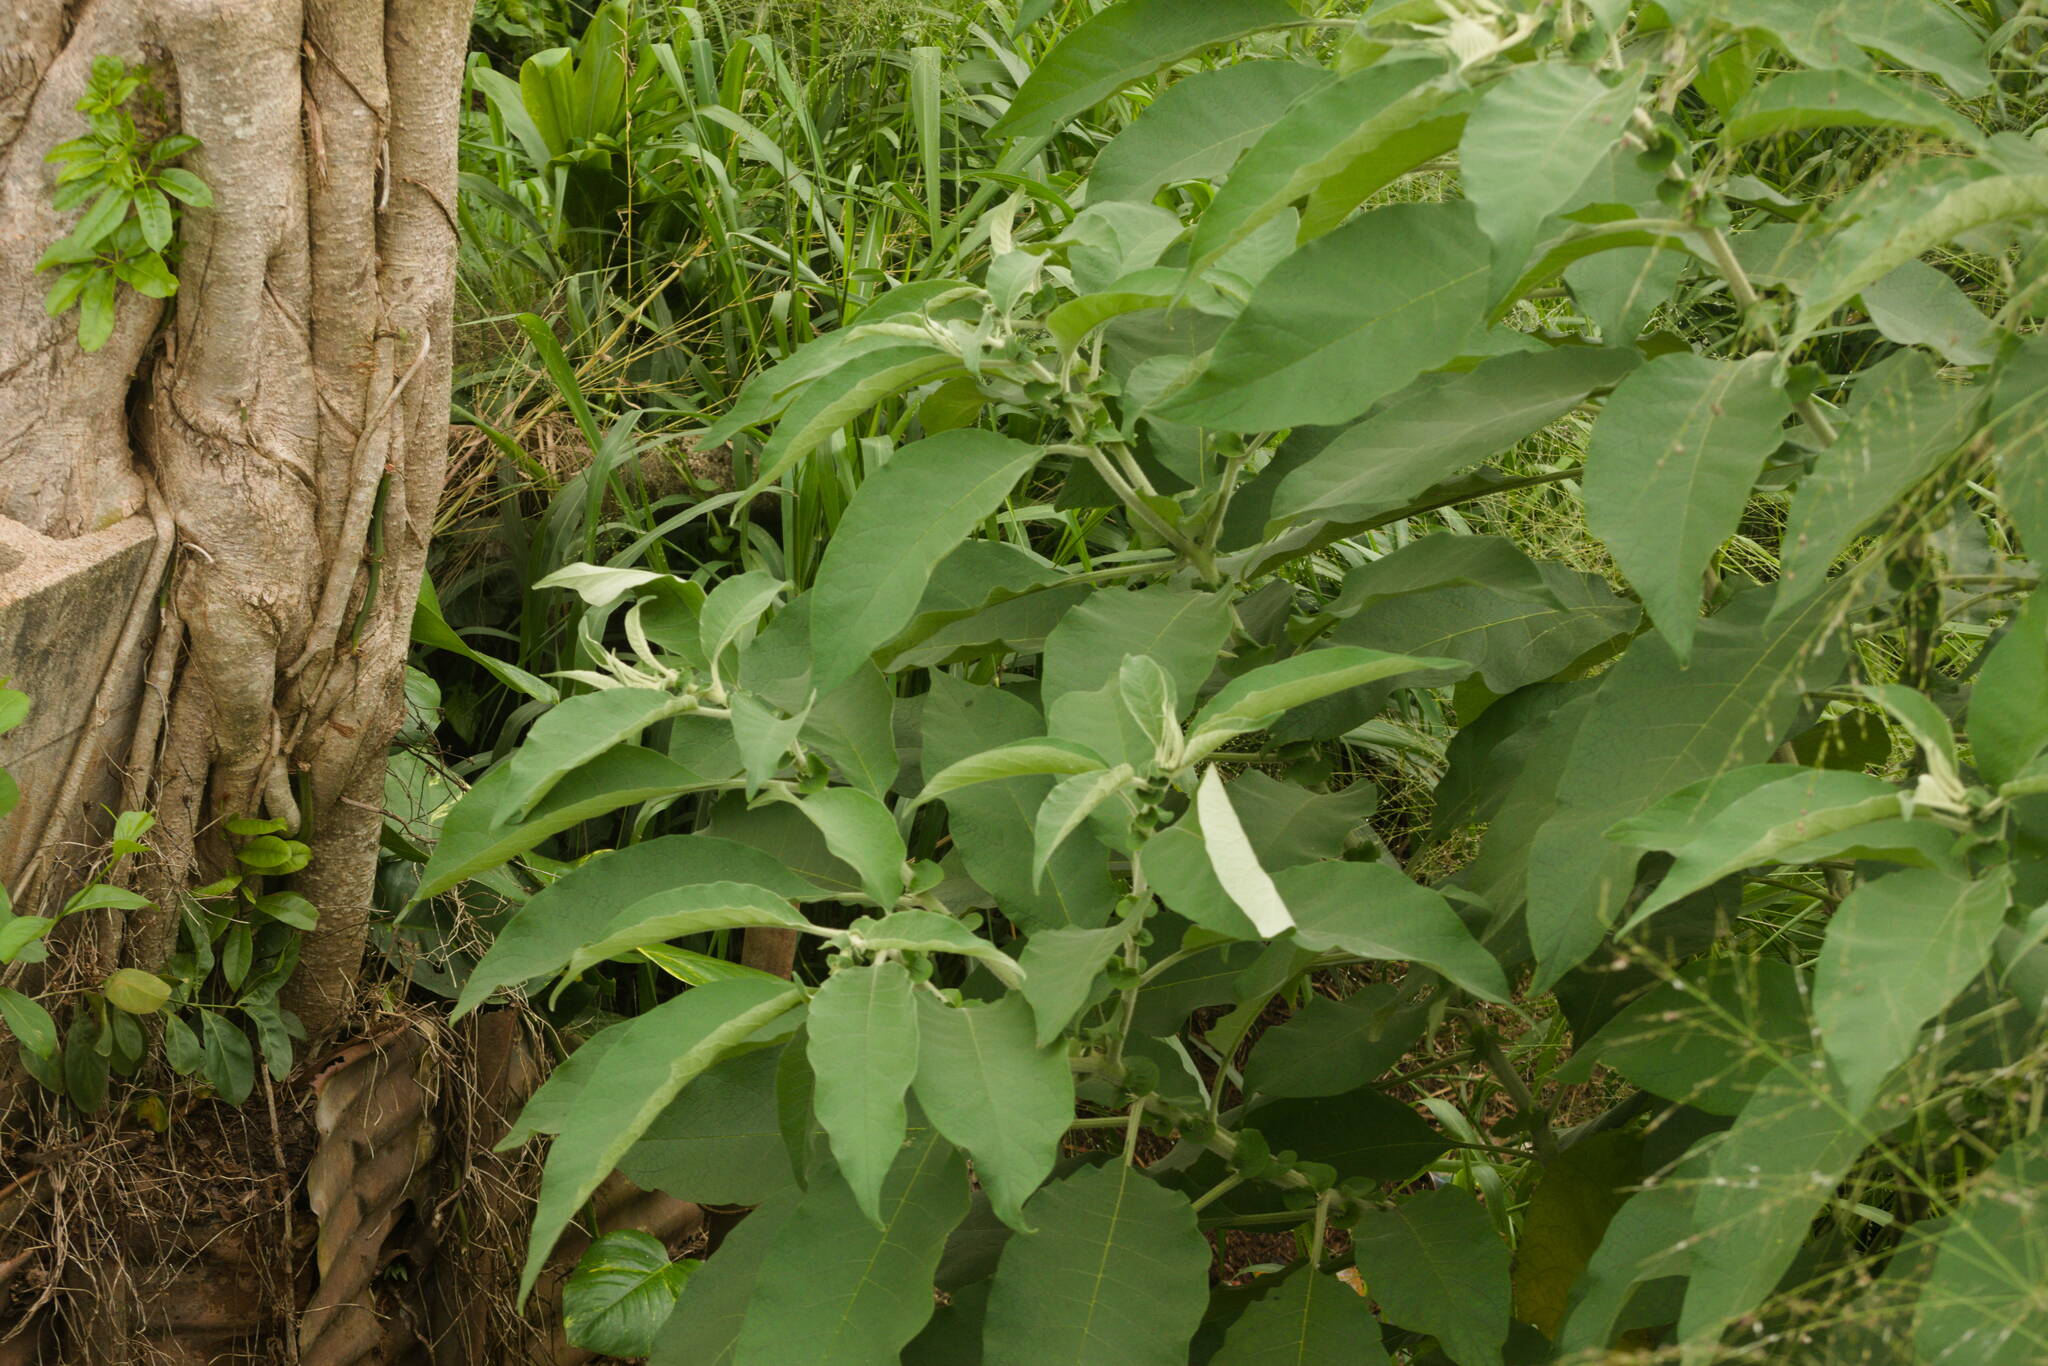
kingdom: Plantae
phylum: Tracheophyta
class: Magnoliopsida
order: Solanales
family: Solanaceae
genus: Solanum
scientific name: Solanum mauritianum
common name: Earleaf nightshade
